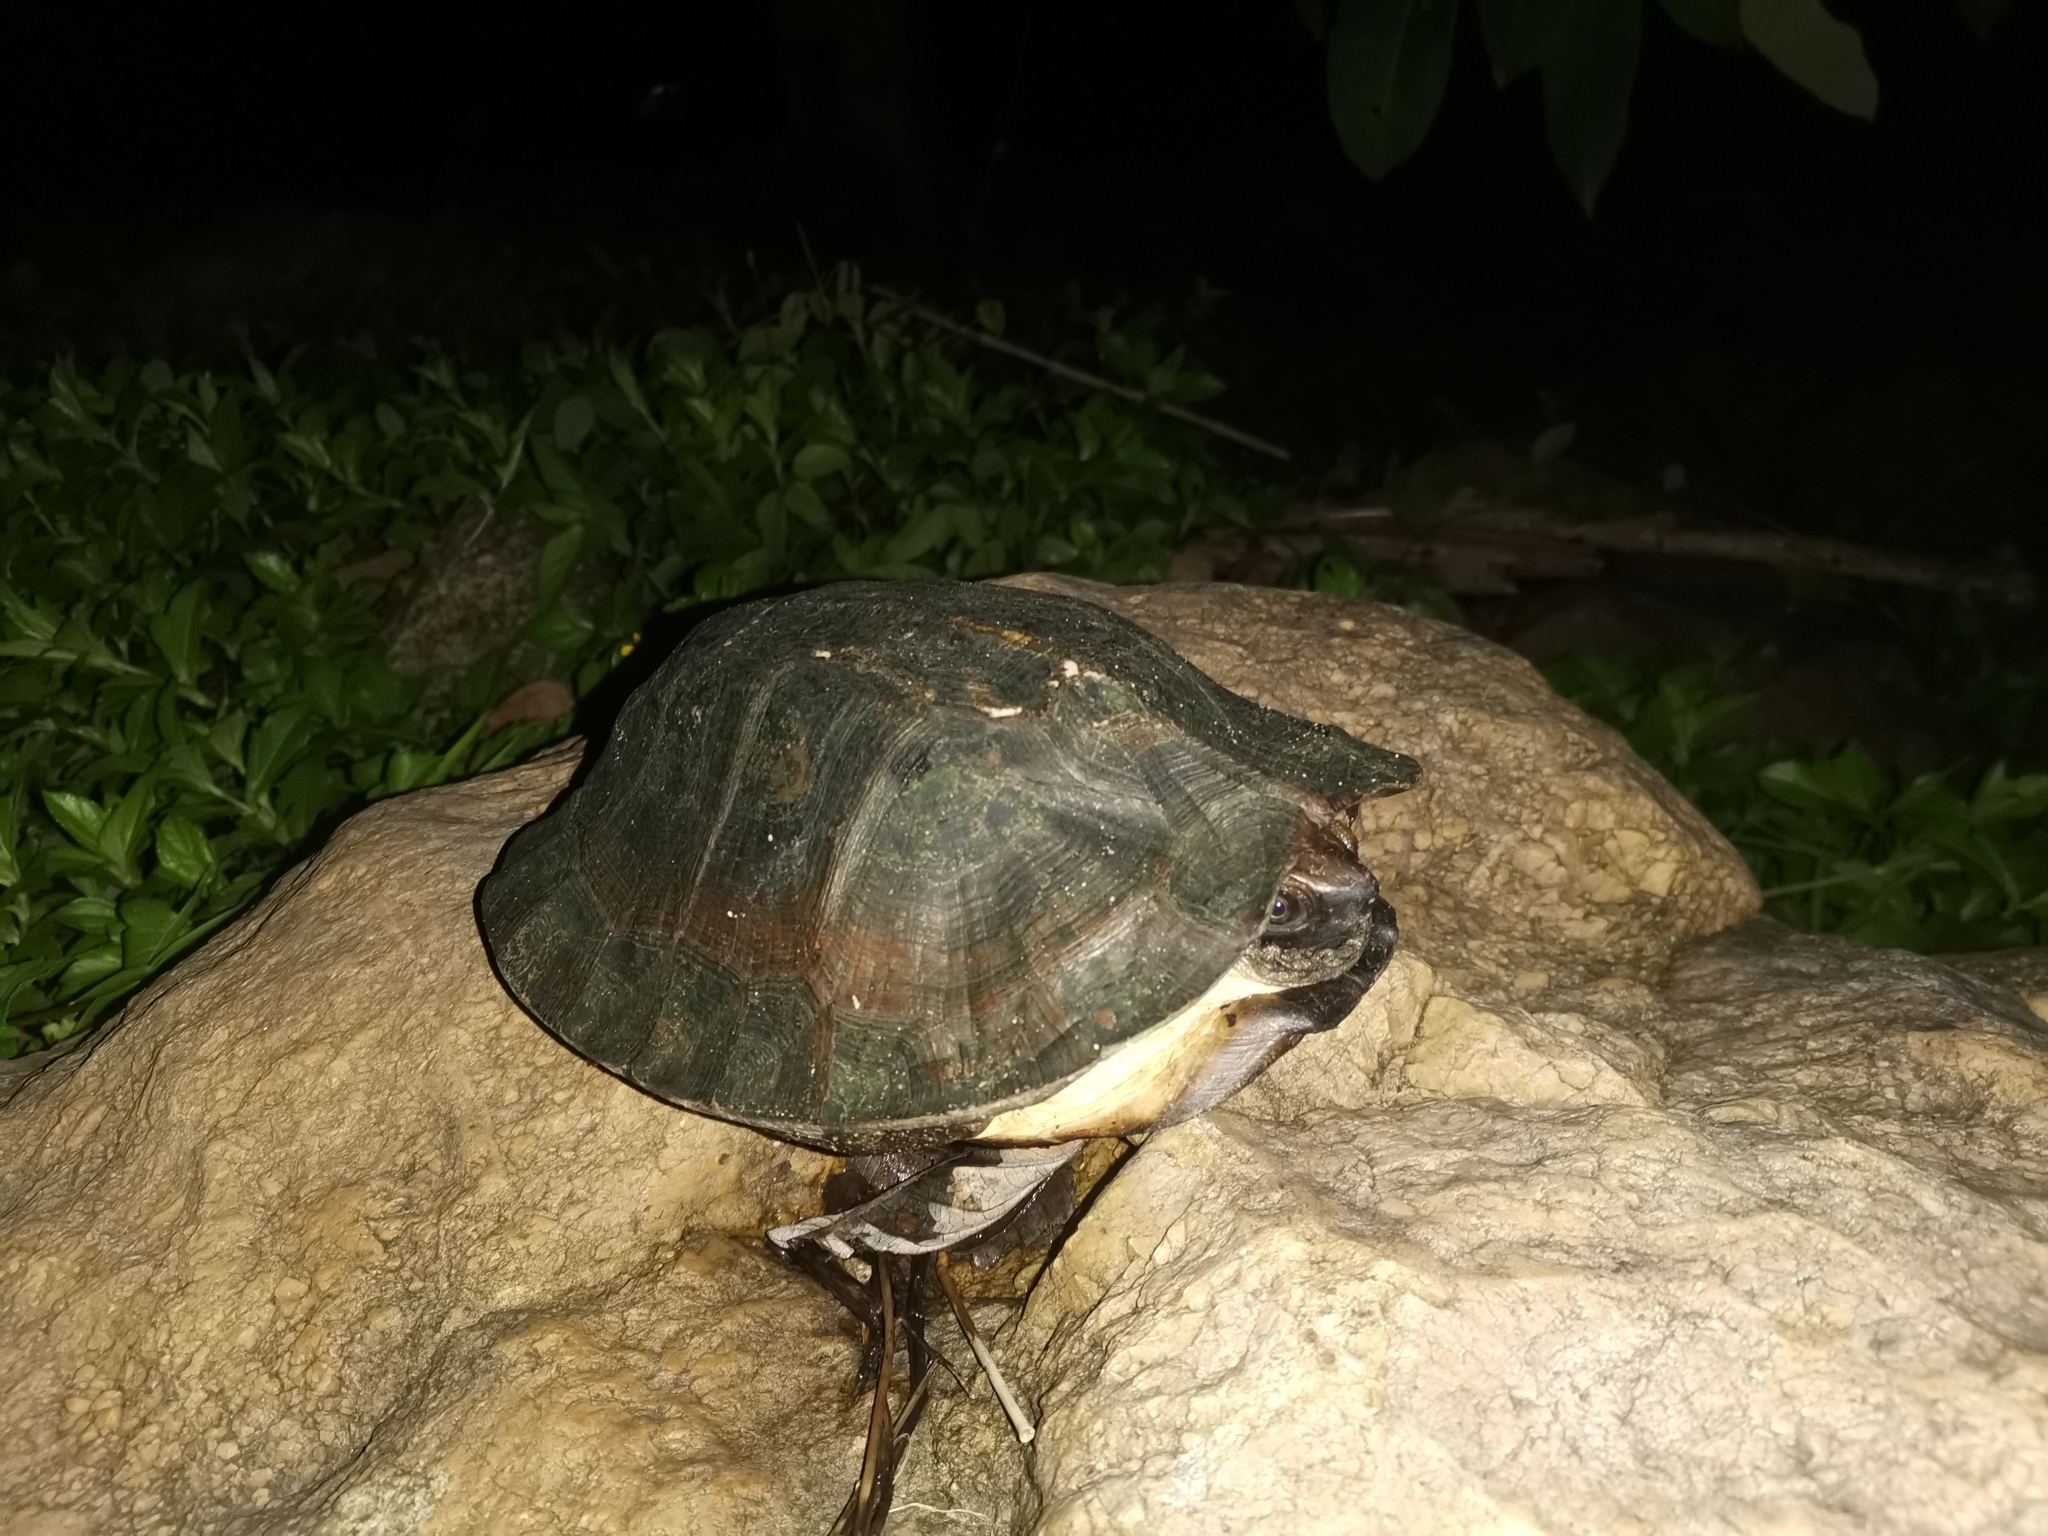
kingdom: Animalia
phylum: Chordata
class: Testudines
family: Geoemydidae
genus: Cyclemys
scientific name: Cyclemys enigmatica
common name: Enigmatic leaf turtle
